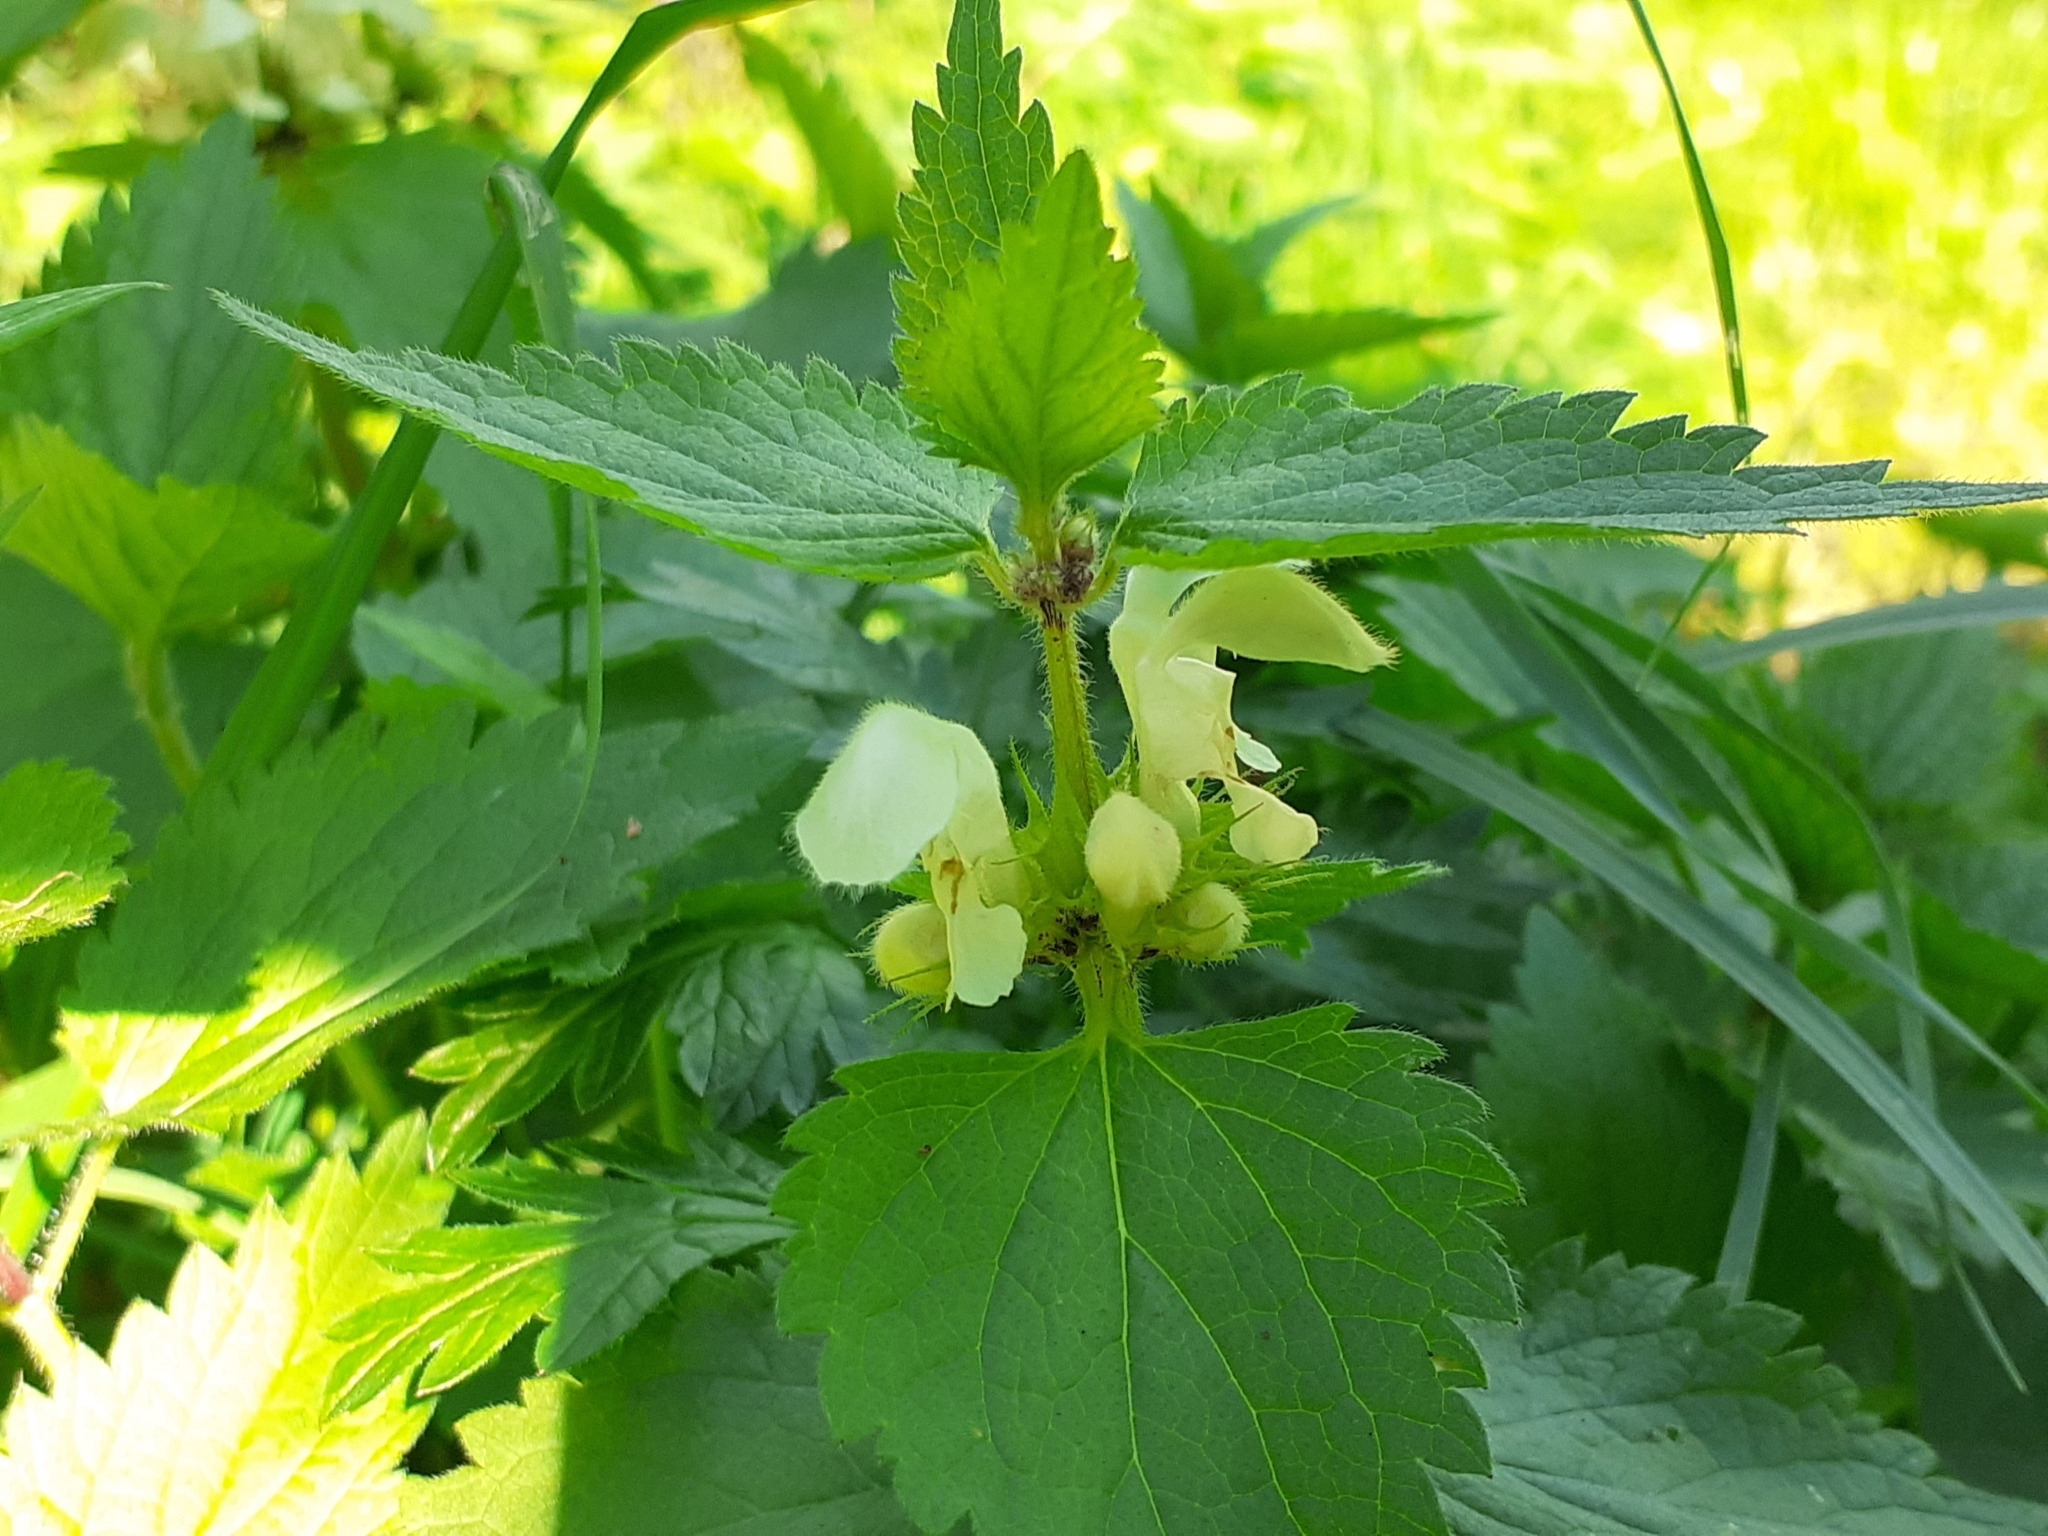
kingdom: Plantae
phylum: Tracheophyta
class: Magnoliopsida
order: Lamiales
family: Lamiaceae
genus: Lamium
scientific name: Lamium album
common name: White dead-nettle
